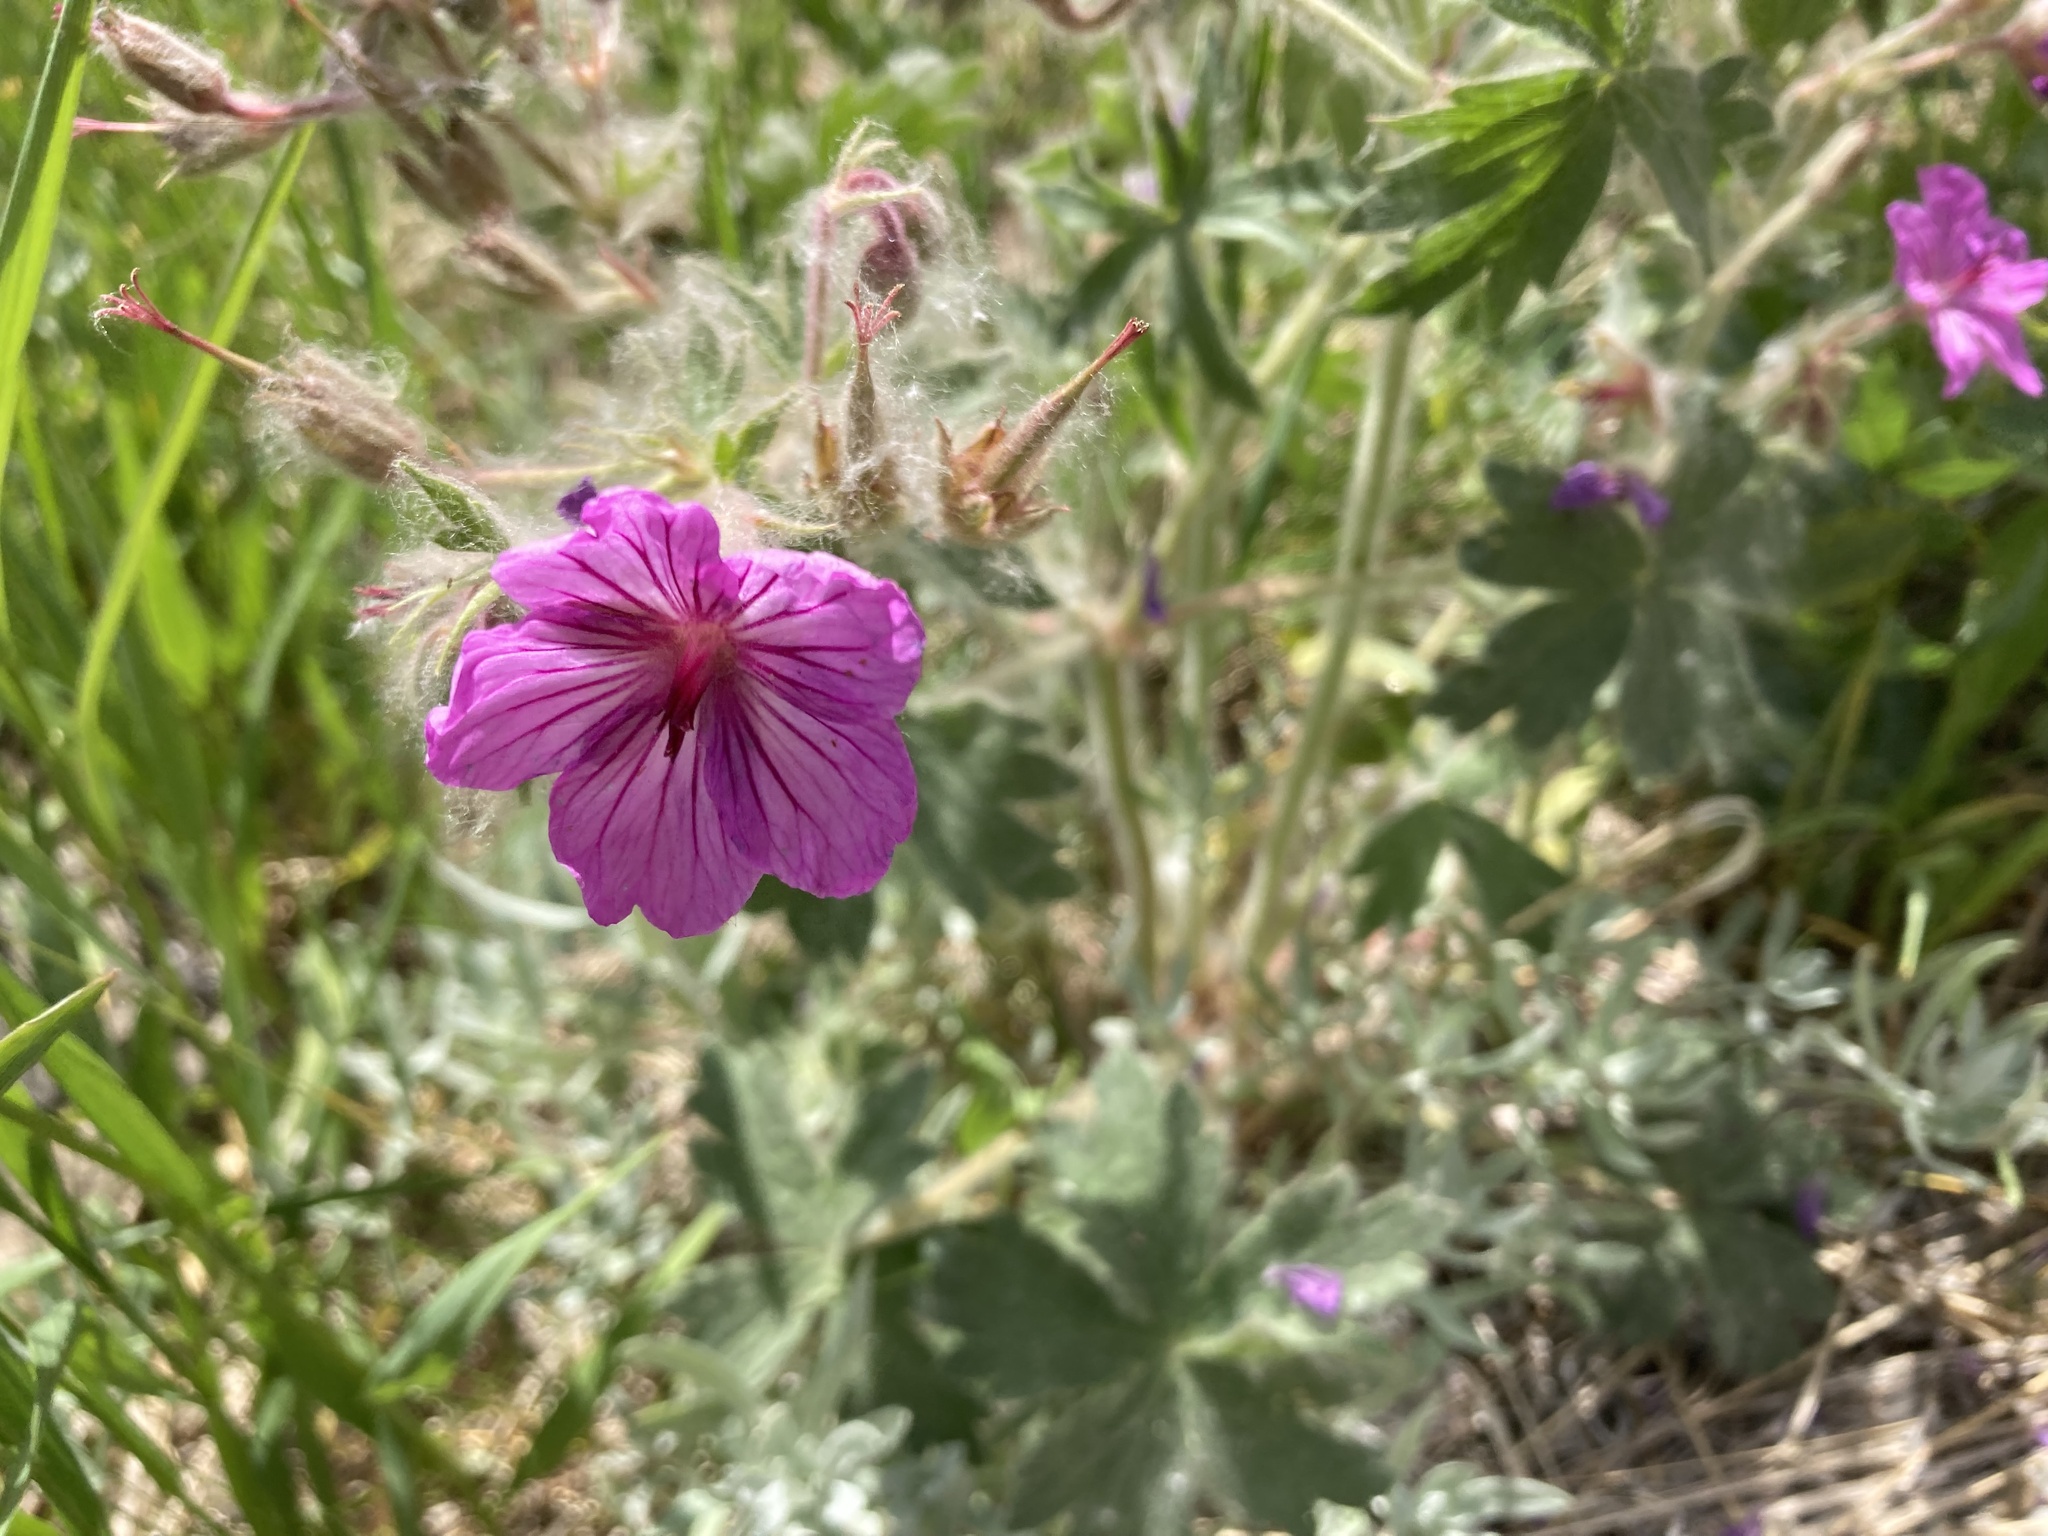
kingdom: Plantae
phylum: Tracheophyta
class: Magnoliopsida
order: Geraniales
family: Geraniaceae
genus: Geranium
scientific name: Geranium viscosissimum
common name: Purple geranium
